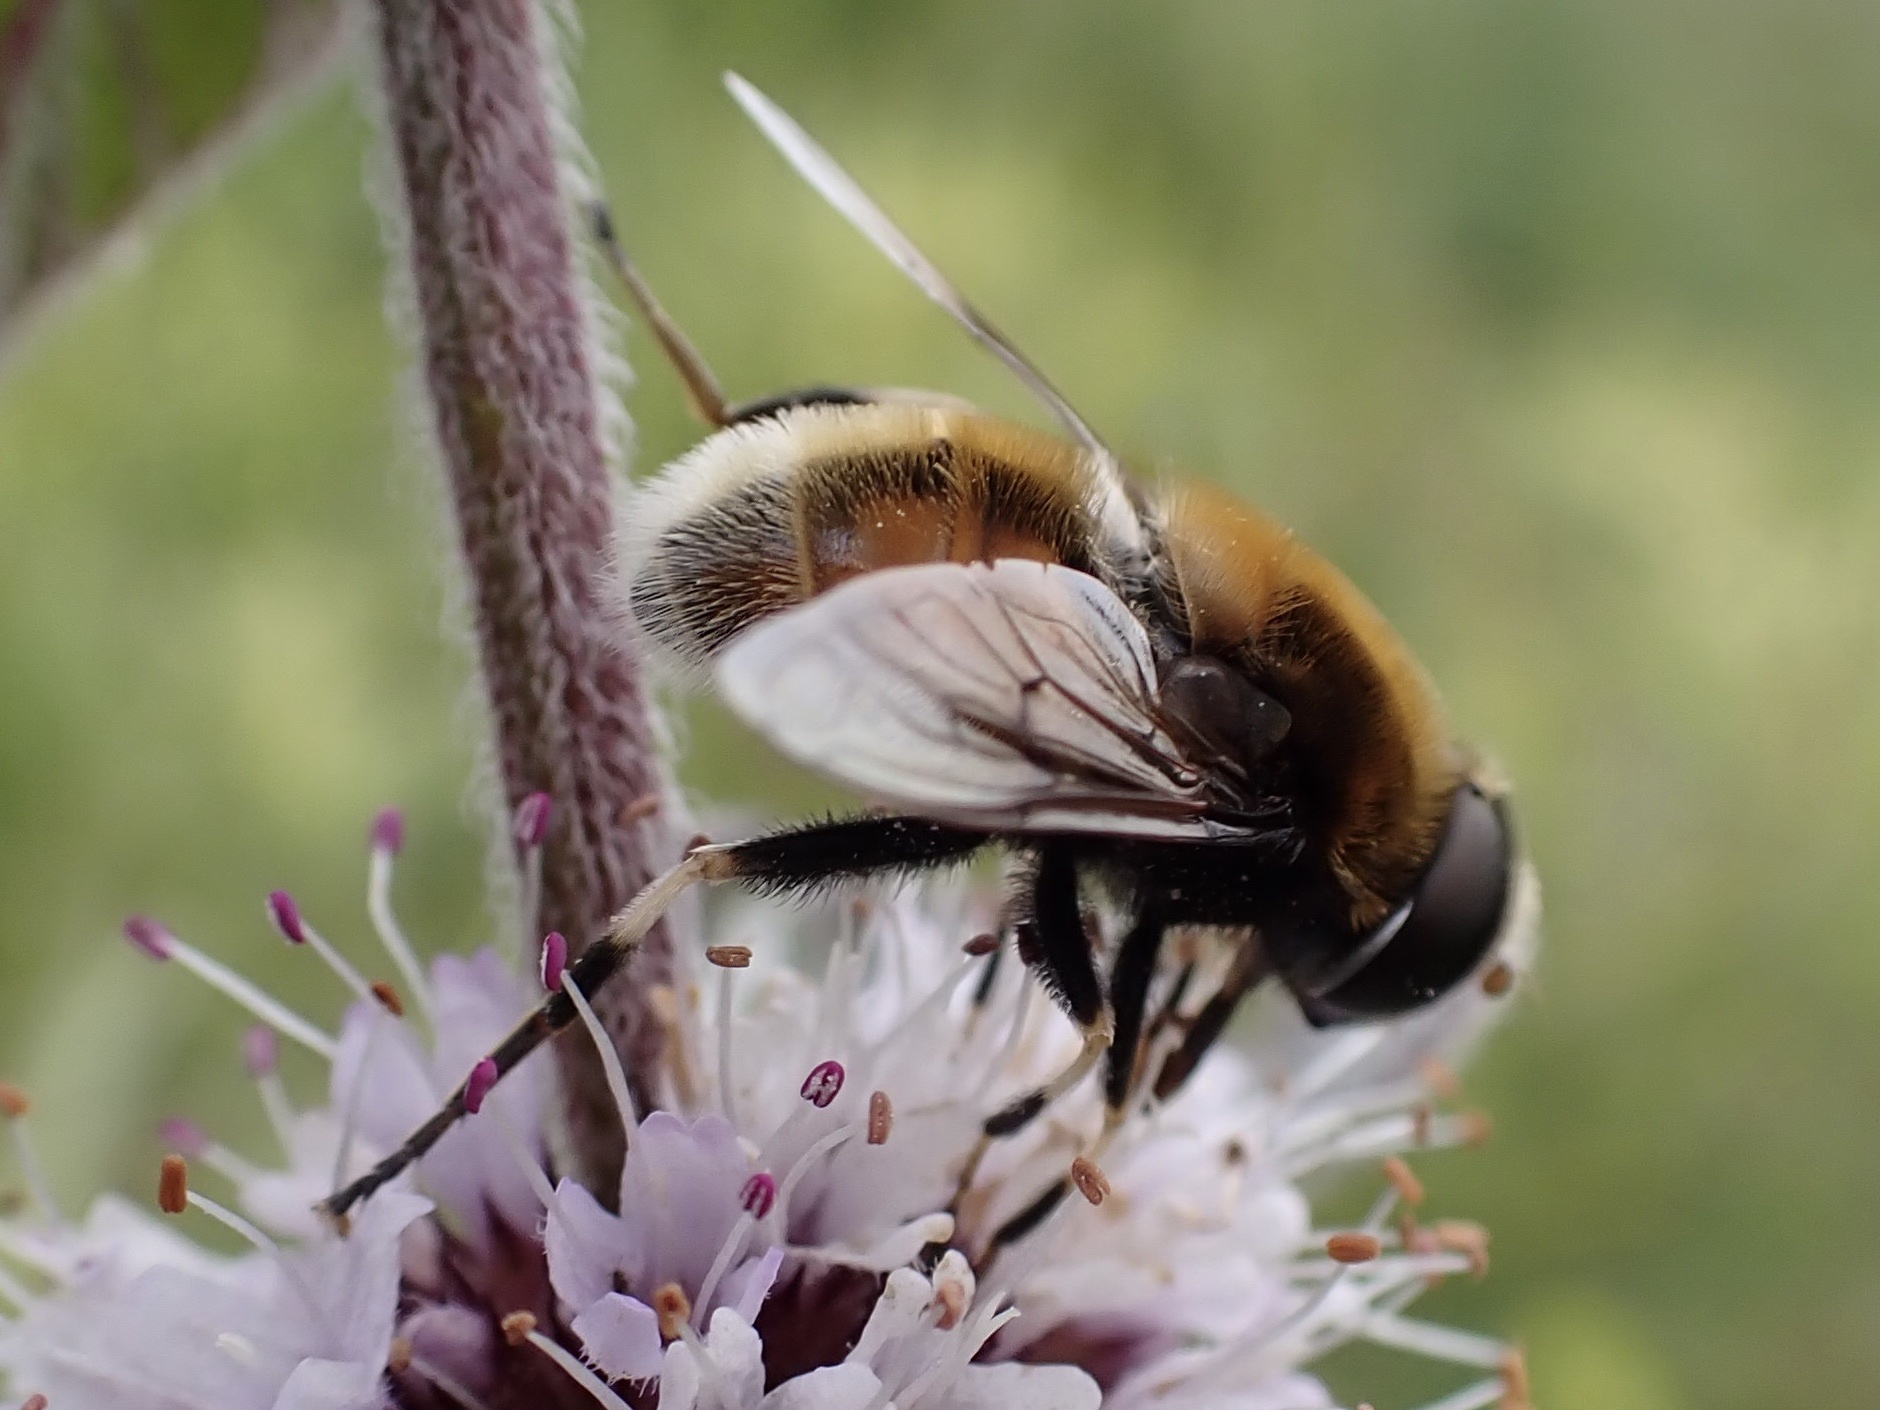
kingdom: Animalia
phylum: Arthropoda
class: Insecta
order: Diptera
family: Syrphidae
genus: Eristalis
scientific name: Eristalis intricaria
